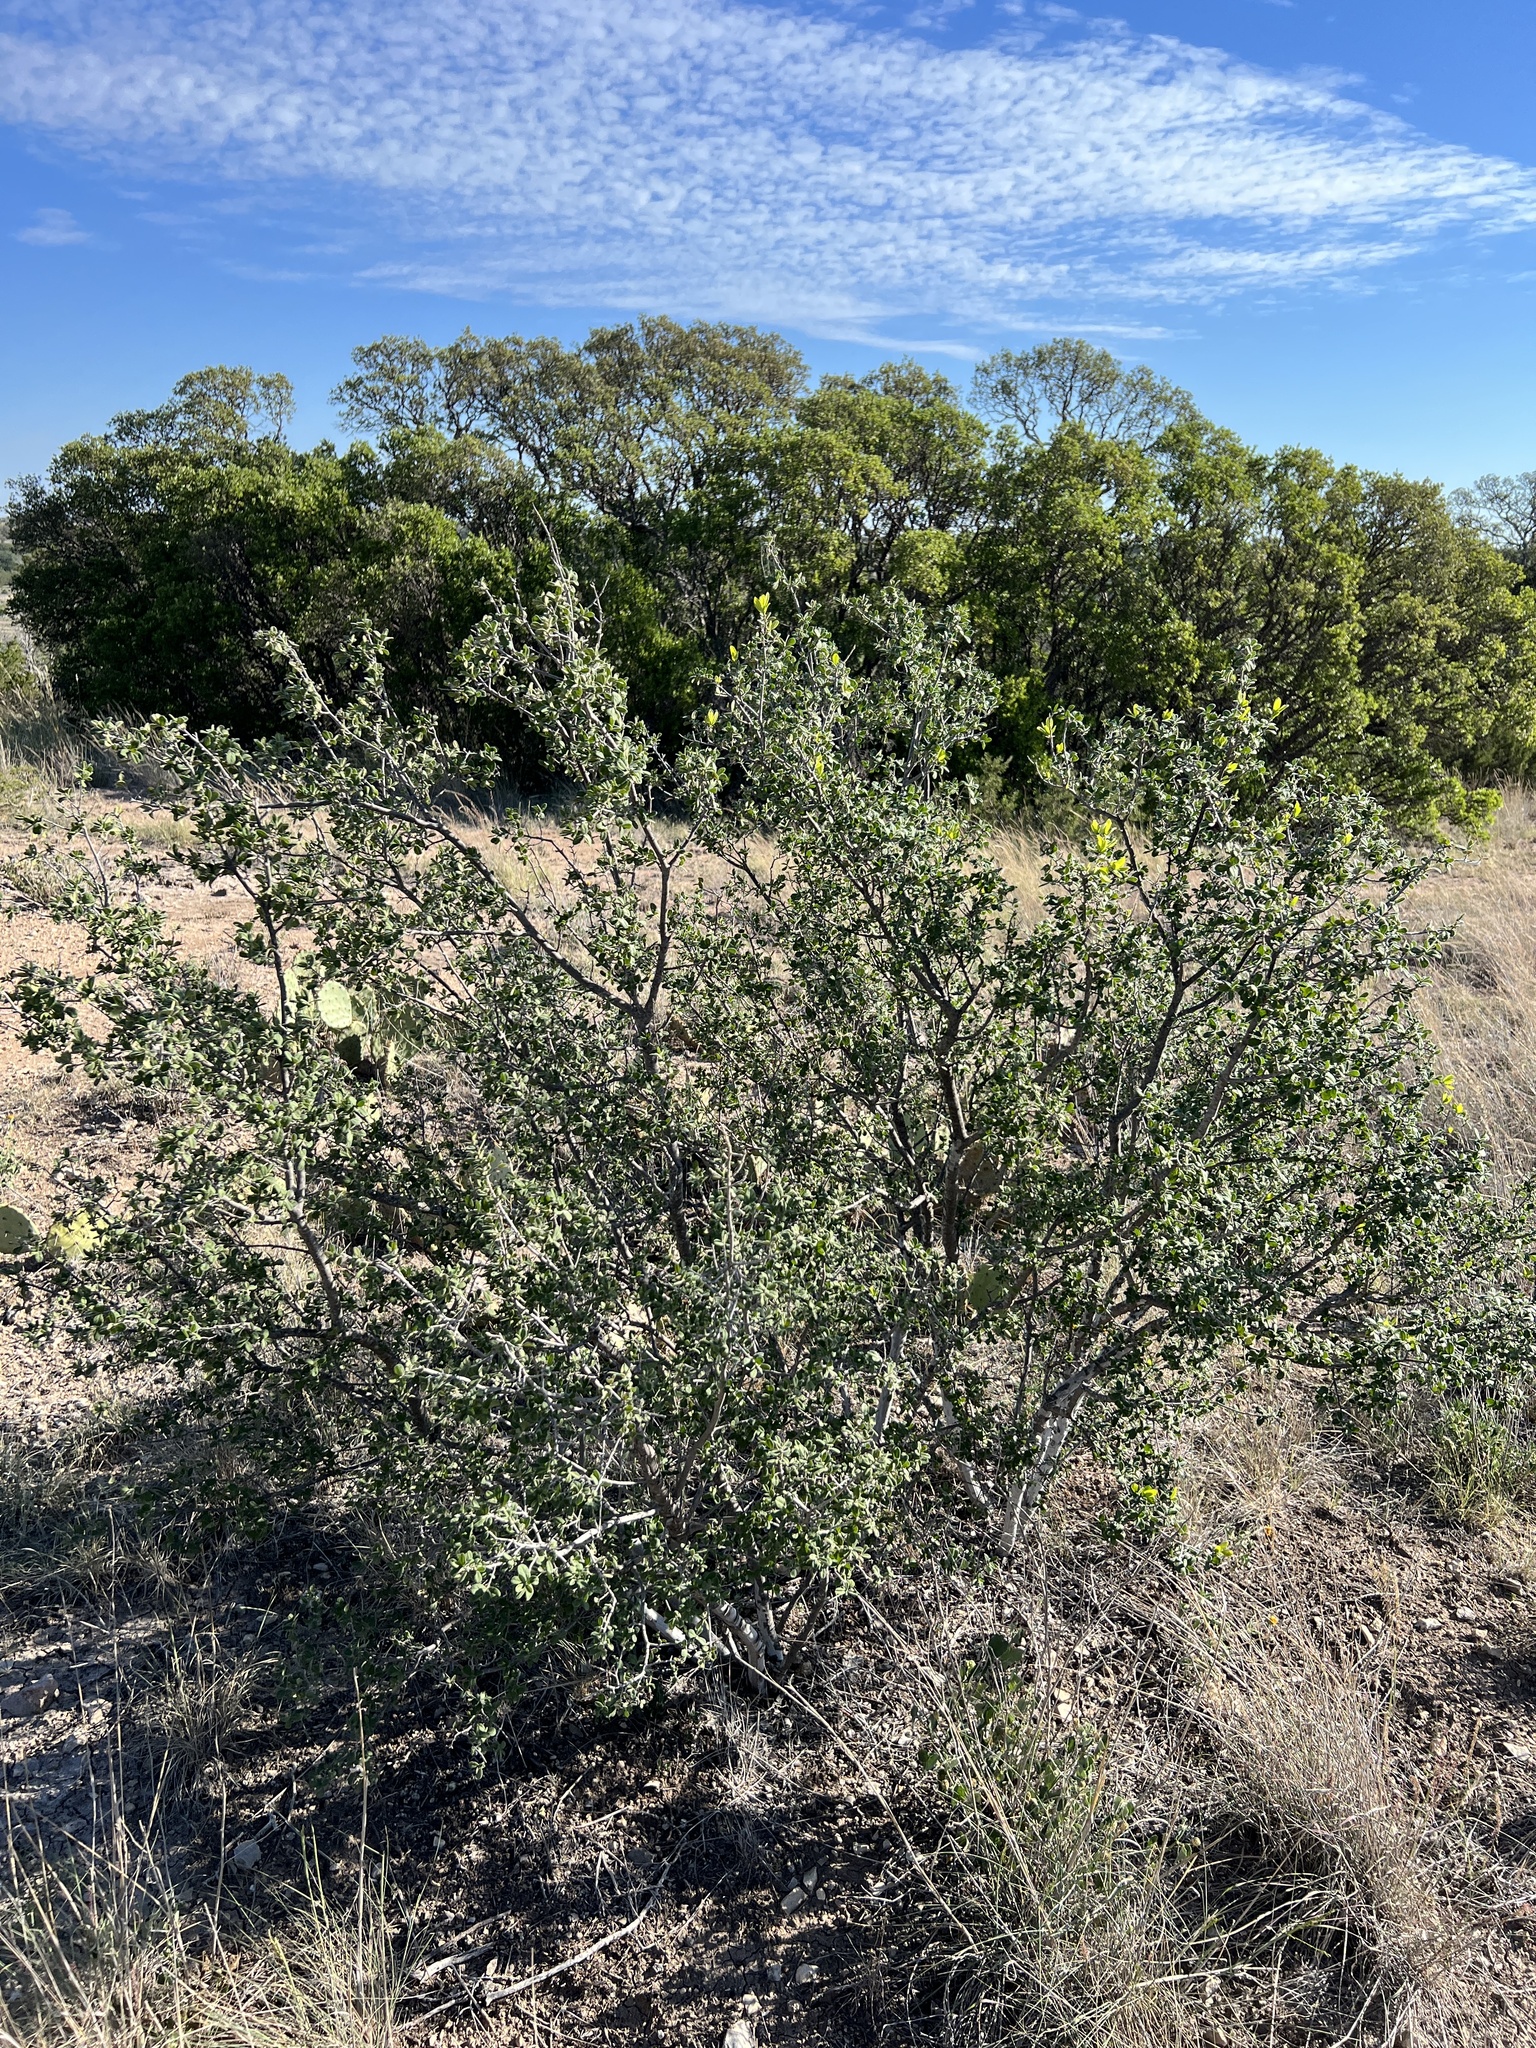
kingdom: Plantae
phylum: Tracheophyta
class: Magnoliopsida
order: Ericales
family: Ebenaceae
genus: Diospyros
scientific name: Diospyros texana
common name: Texas persimmon
